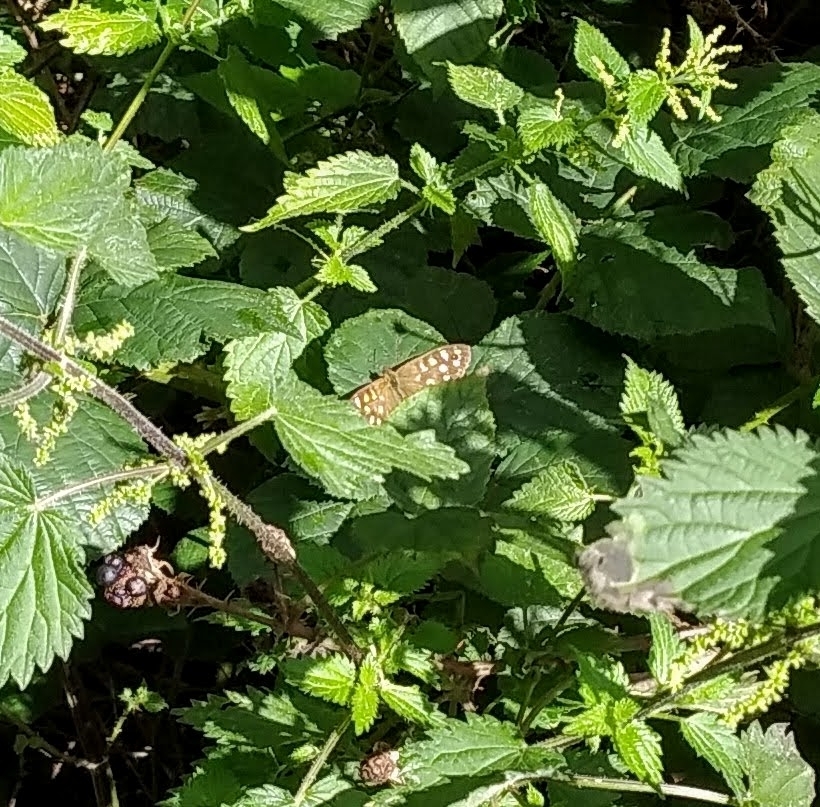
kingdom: Animalia
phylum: Arthropoda
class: Insecta
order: Lepidoptera
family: Nymphalidae
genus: Pararge
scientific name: Pararge aegeria
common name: Speckled wood
